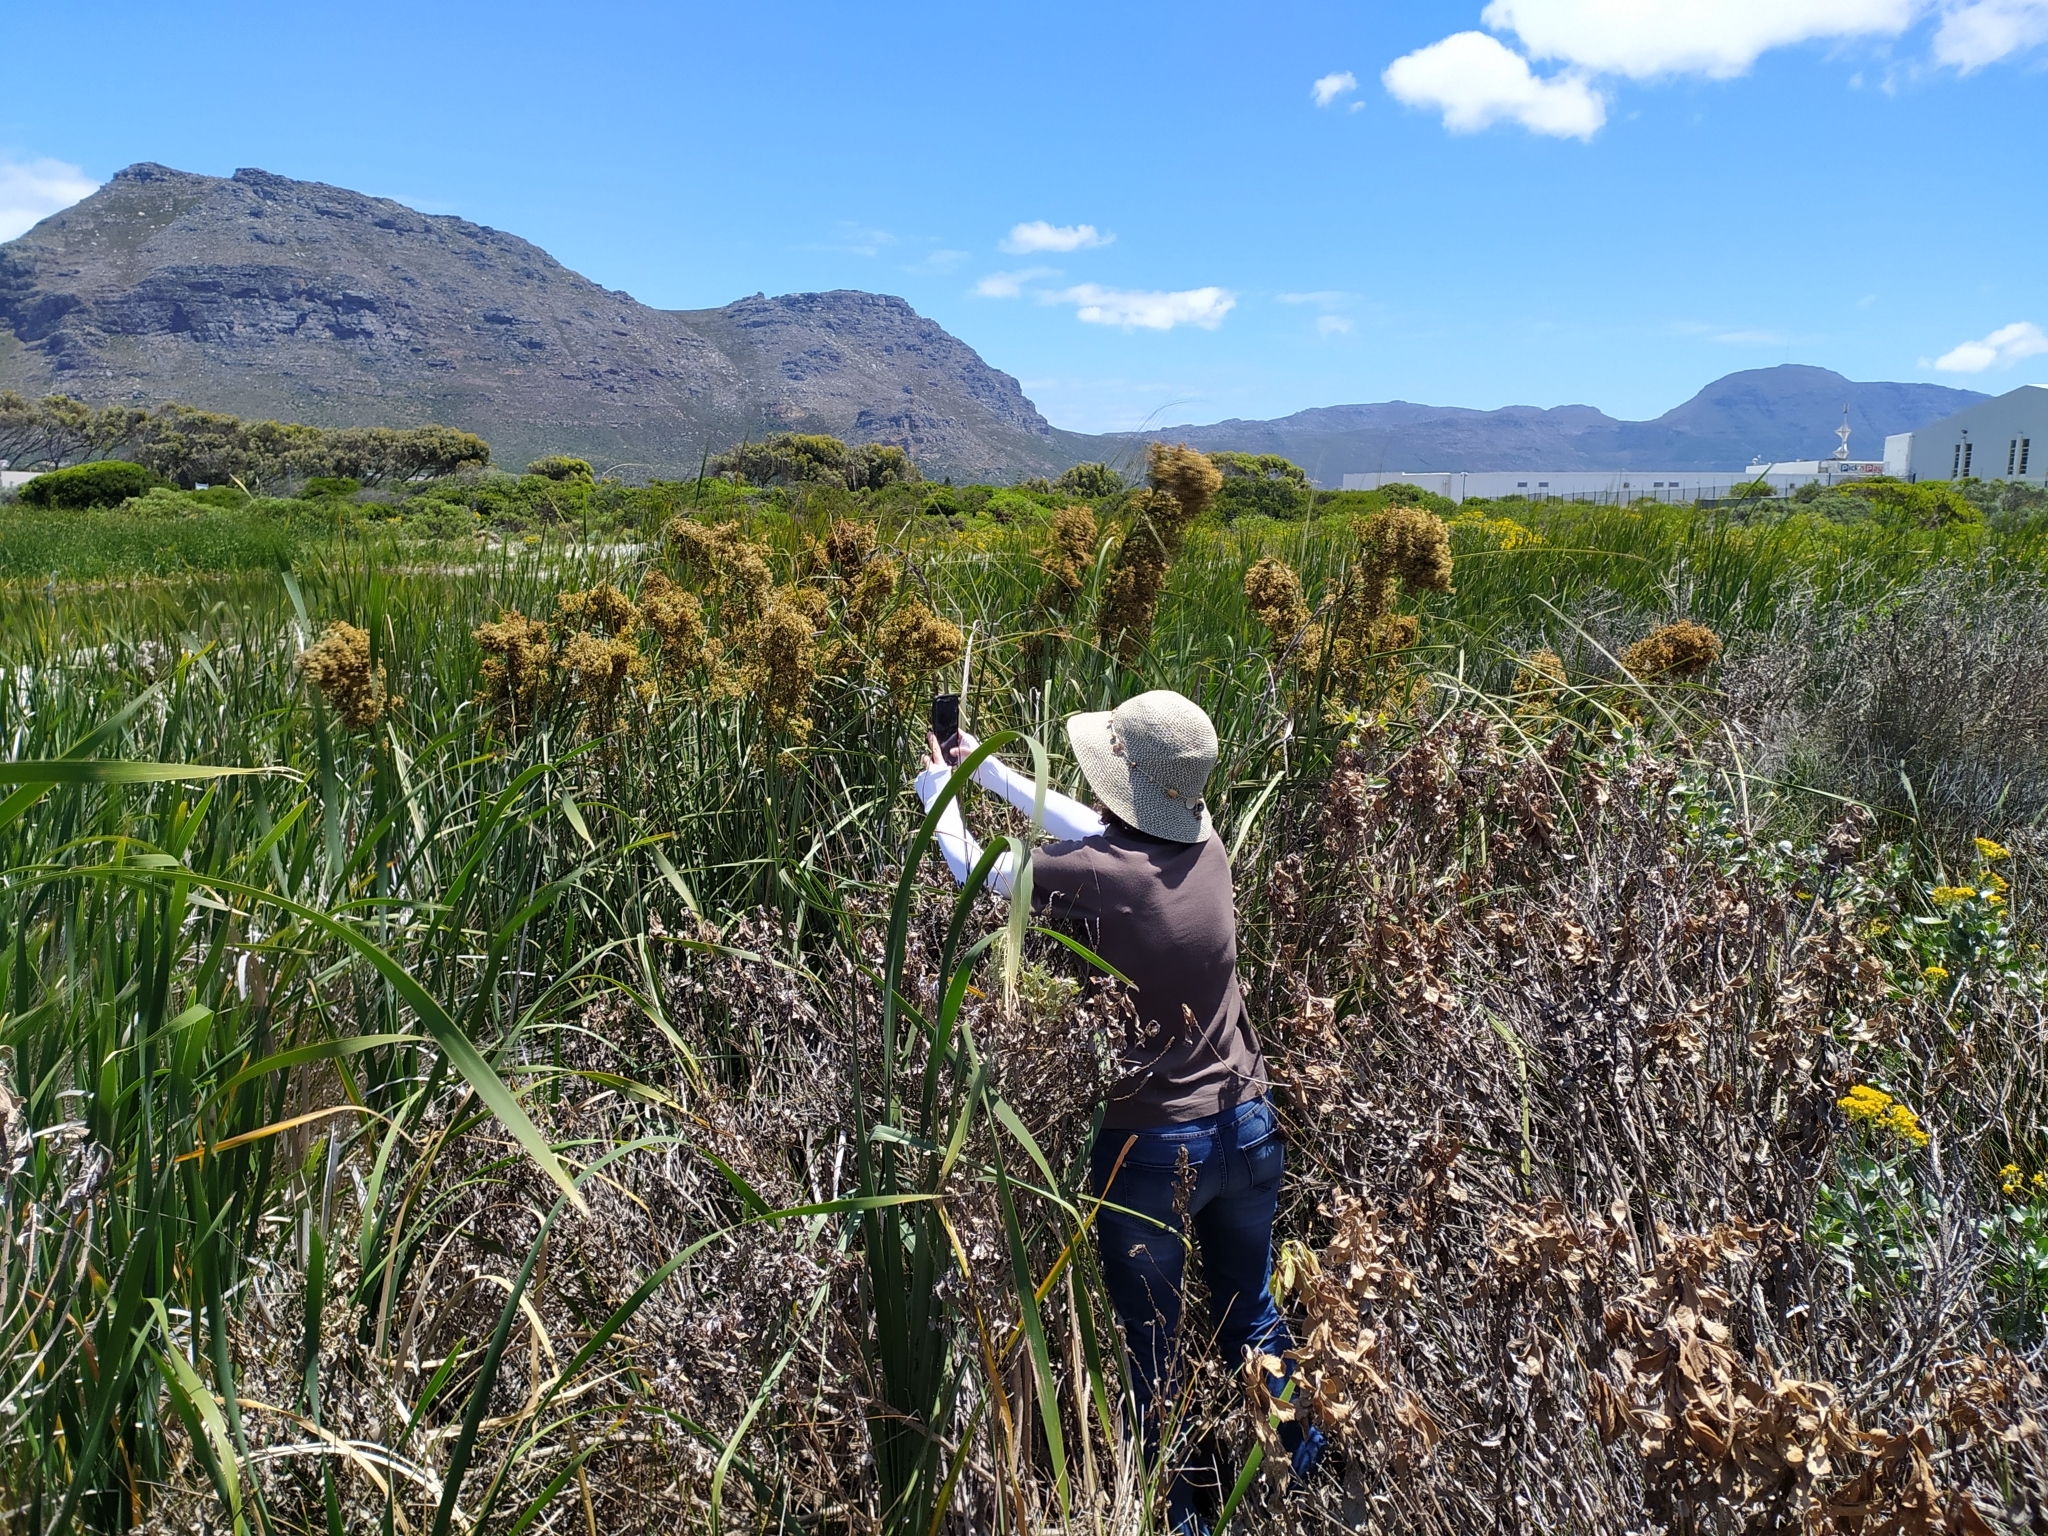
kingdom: Plantae
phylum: Tracheophyta
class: Liliopsida
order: Poales
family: Cyperaceae
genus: Cladium
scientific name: Cladium mariscus
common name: Great fen-sedge
